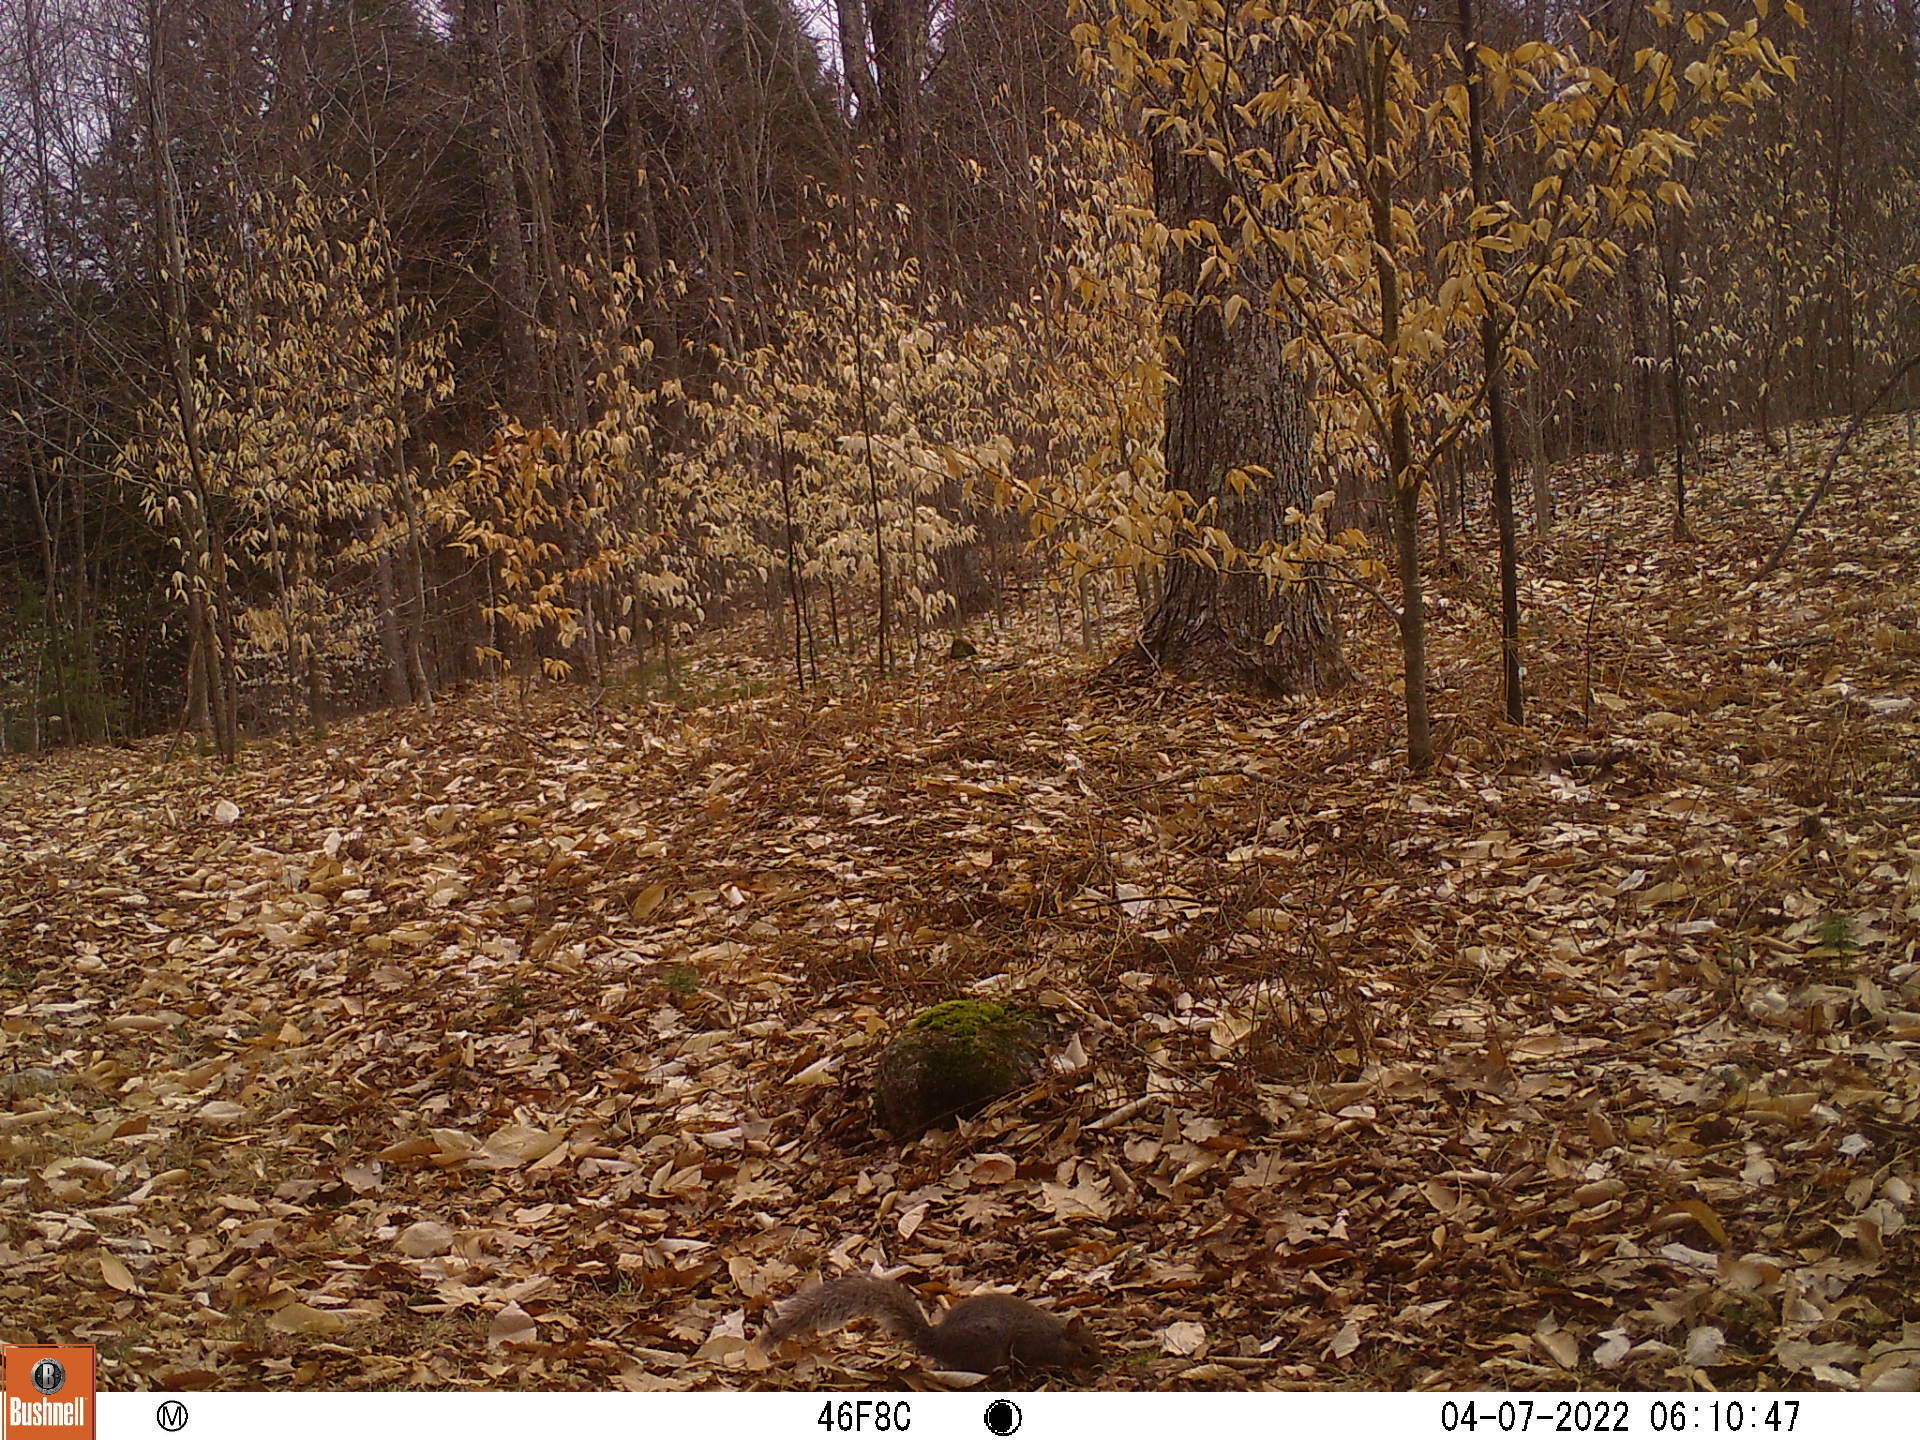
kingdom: Animalia
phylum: Chordata
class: Mammalia
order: Rodentia
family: Sciuridae
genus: Sciurus
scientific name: Sciurus carolinensis
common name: Eastern gray squirrel
